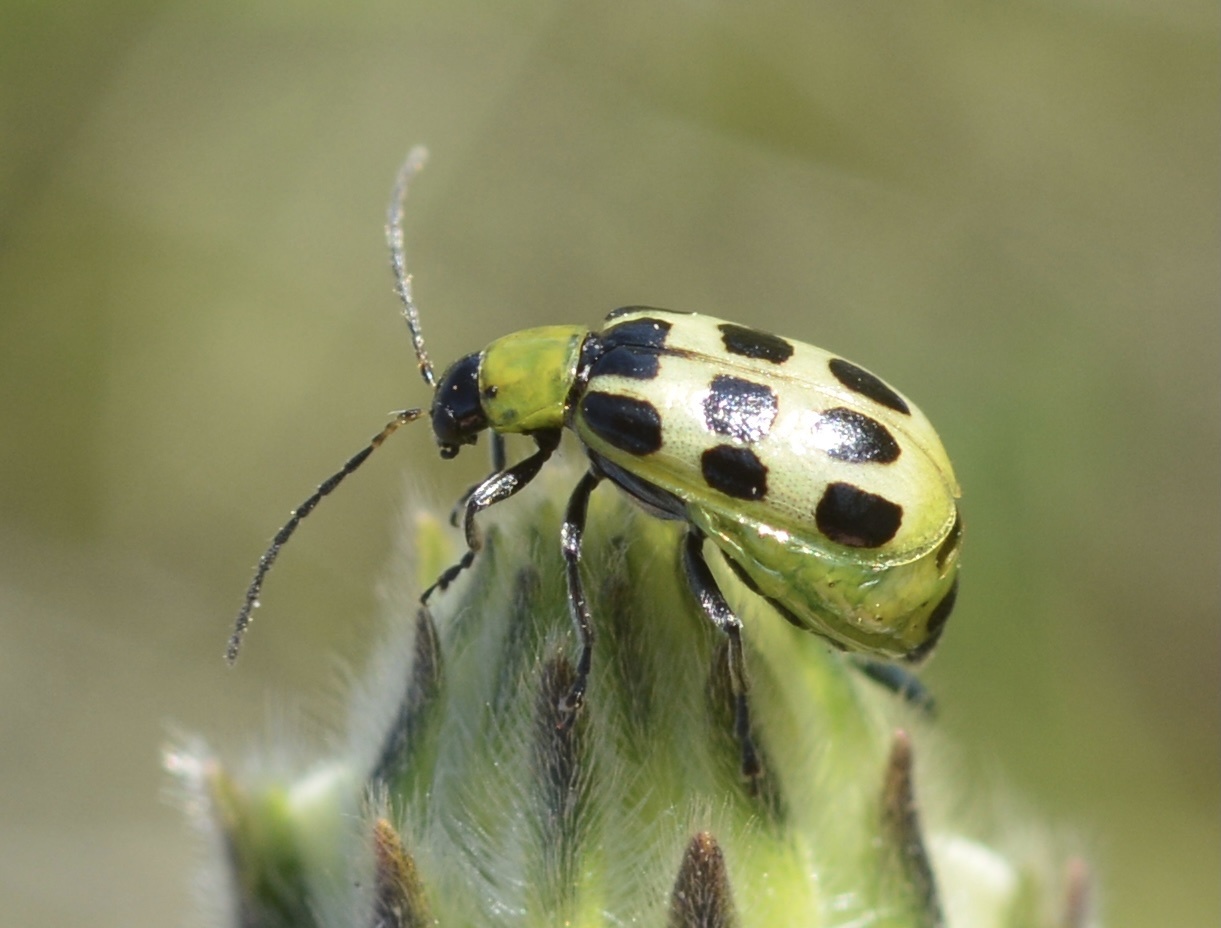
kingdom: Animalia
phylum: Arthropoda
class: Insecta
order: Coleoptera
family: Chrysomelidae
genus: Diabrotica
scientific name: Diabrotica undecimpunctata
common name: Spotted cucumber beetle
